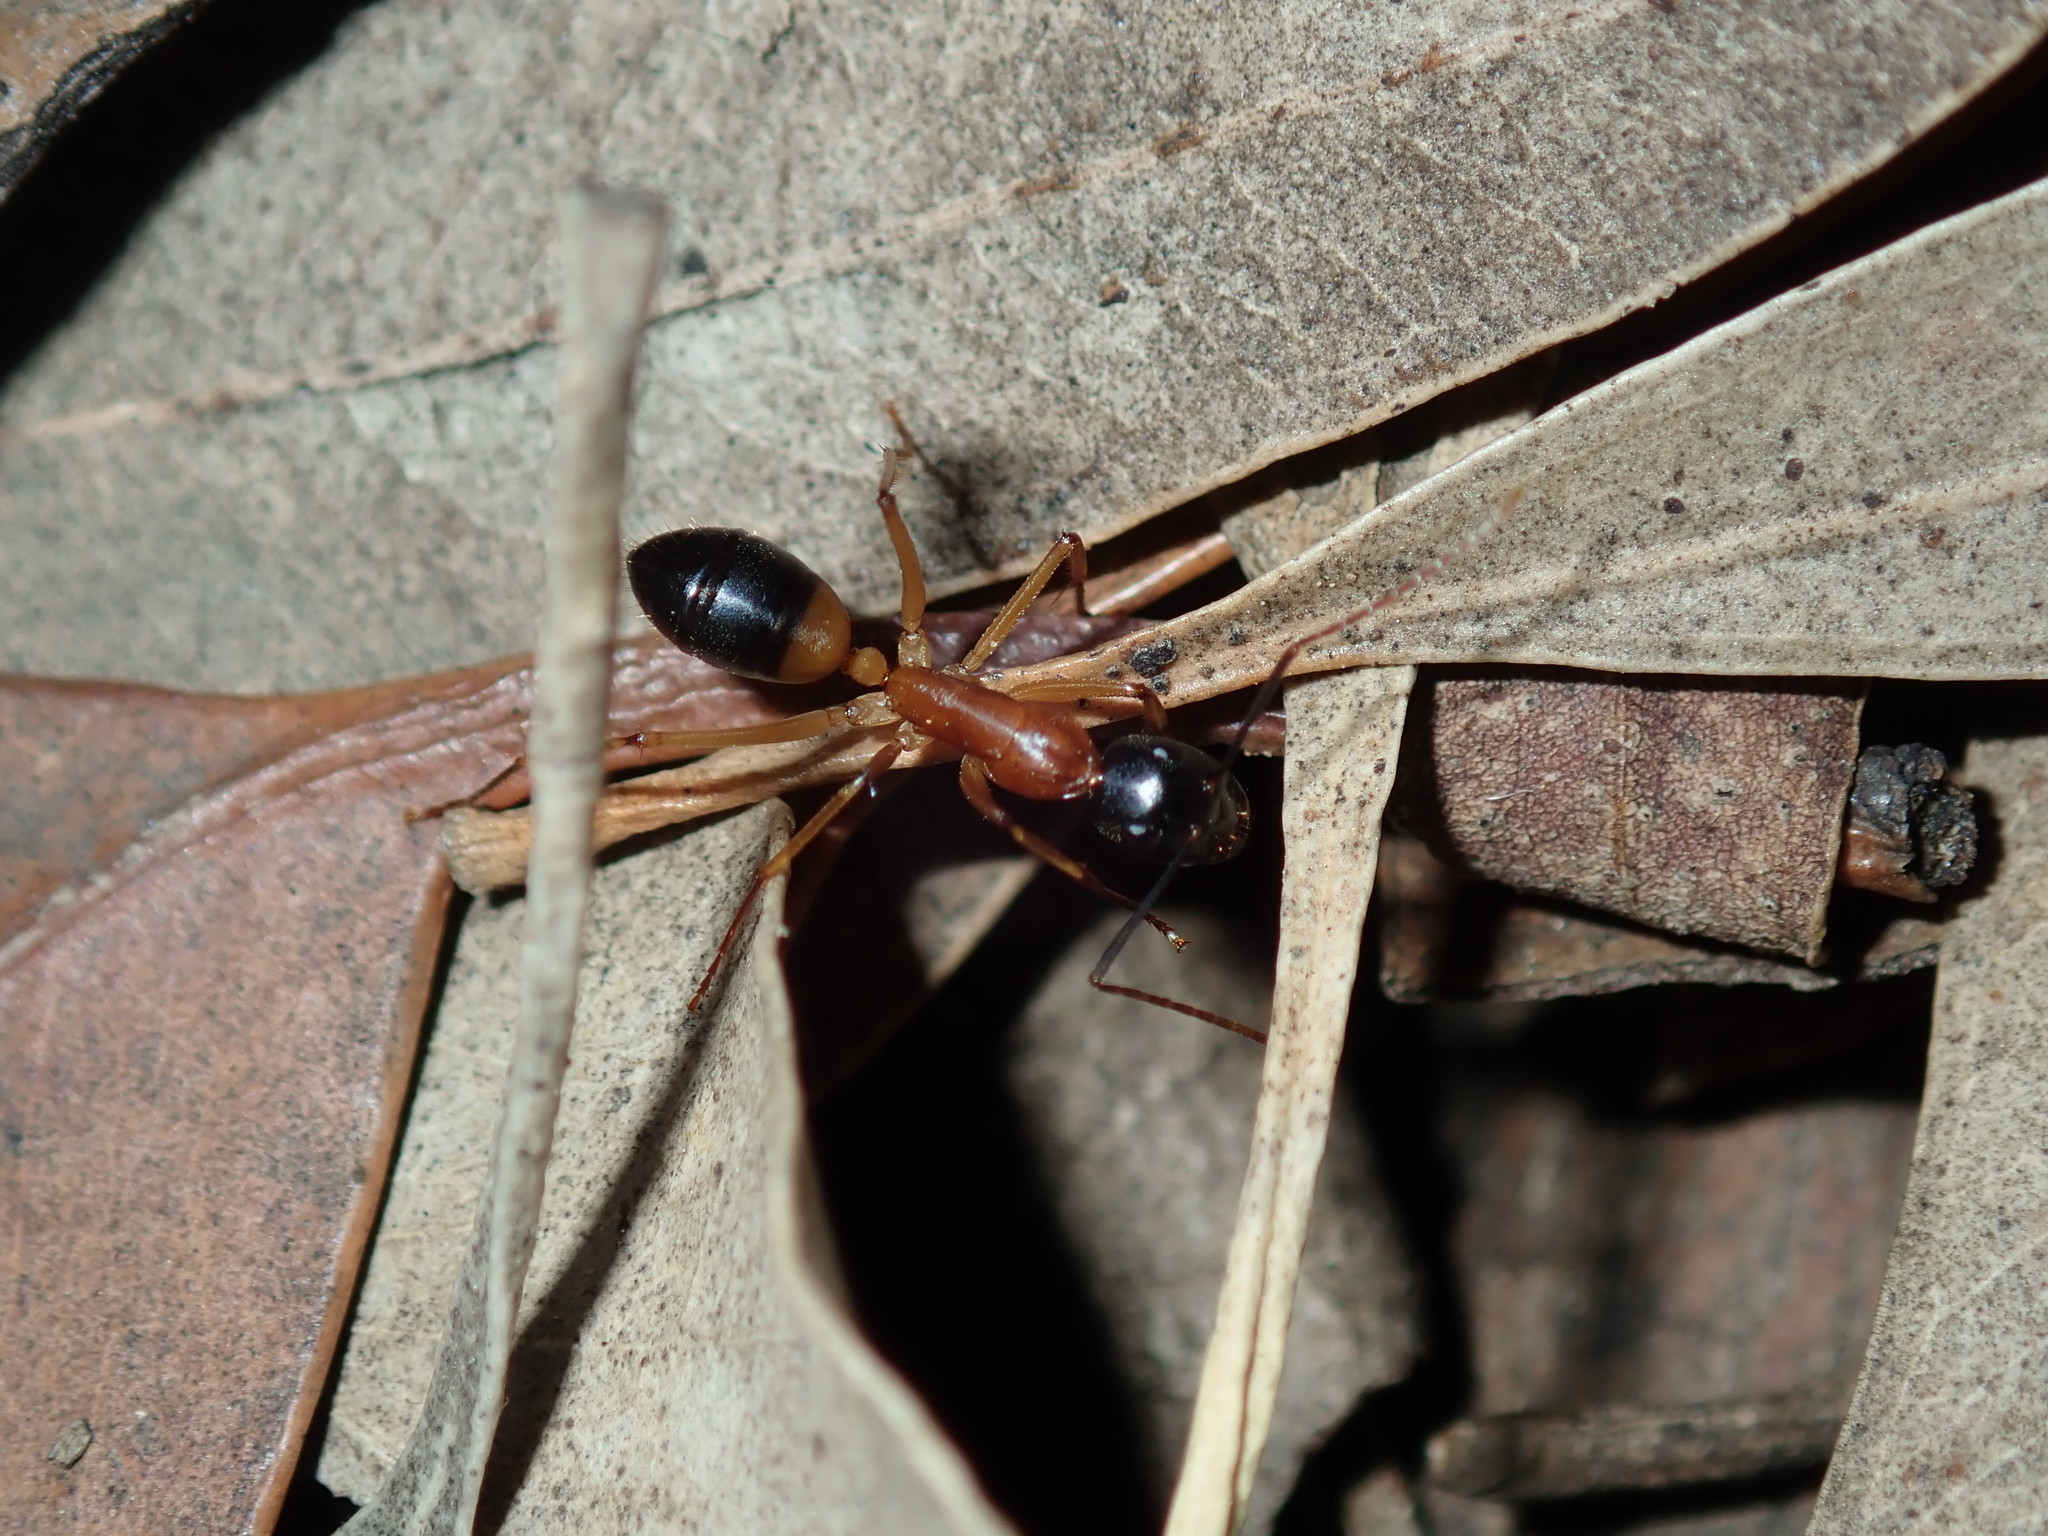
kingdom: Animalia
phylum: Arthropoda
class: Insecta
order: Hymenoptera
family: Formicidae
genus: Camponotus
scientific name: Camponotus consobrinus
